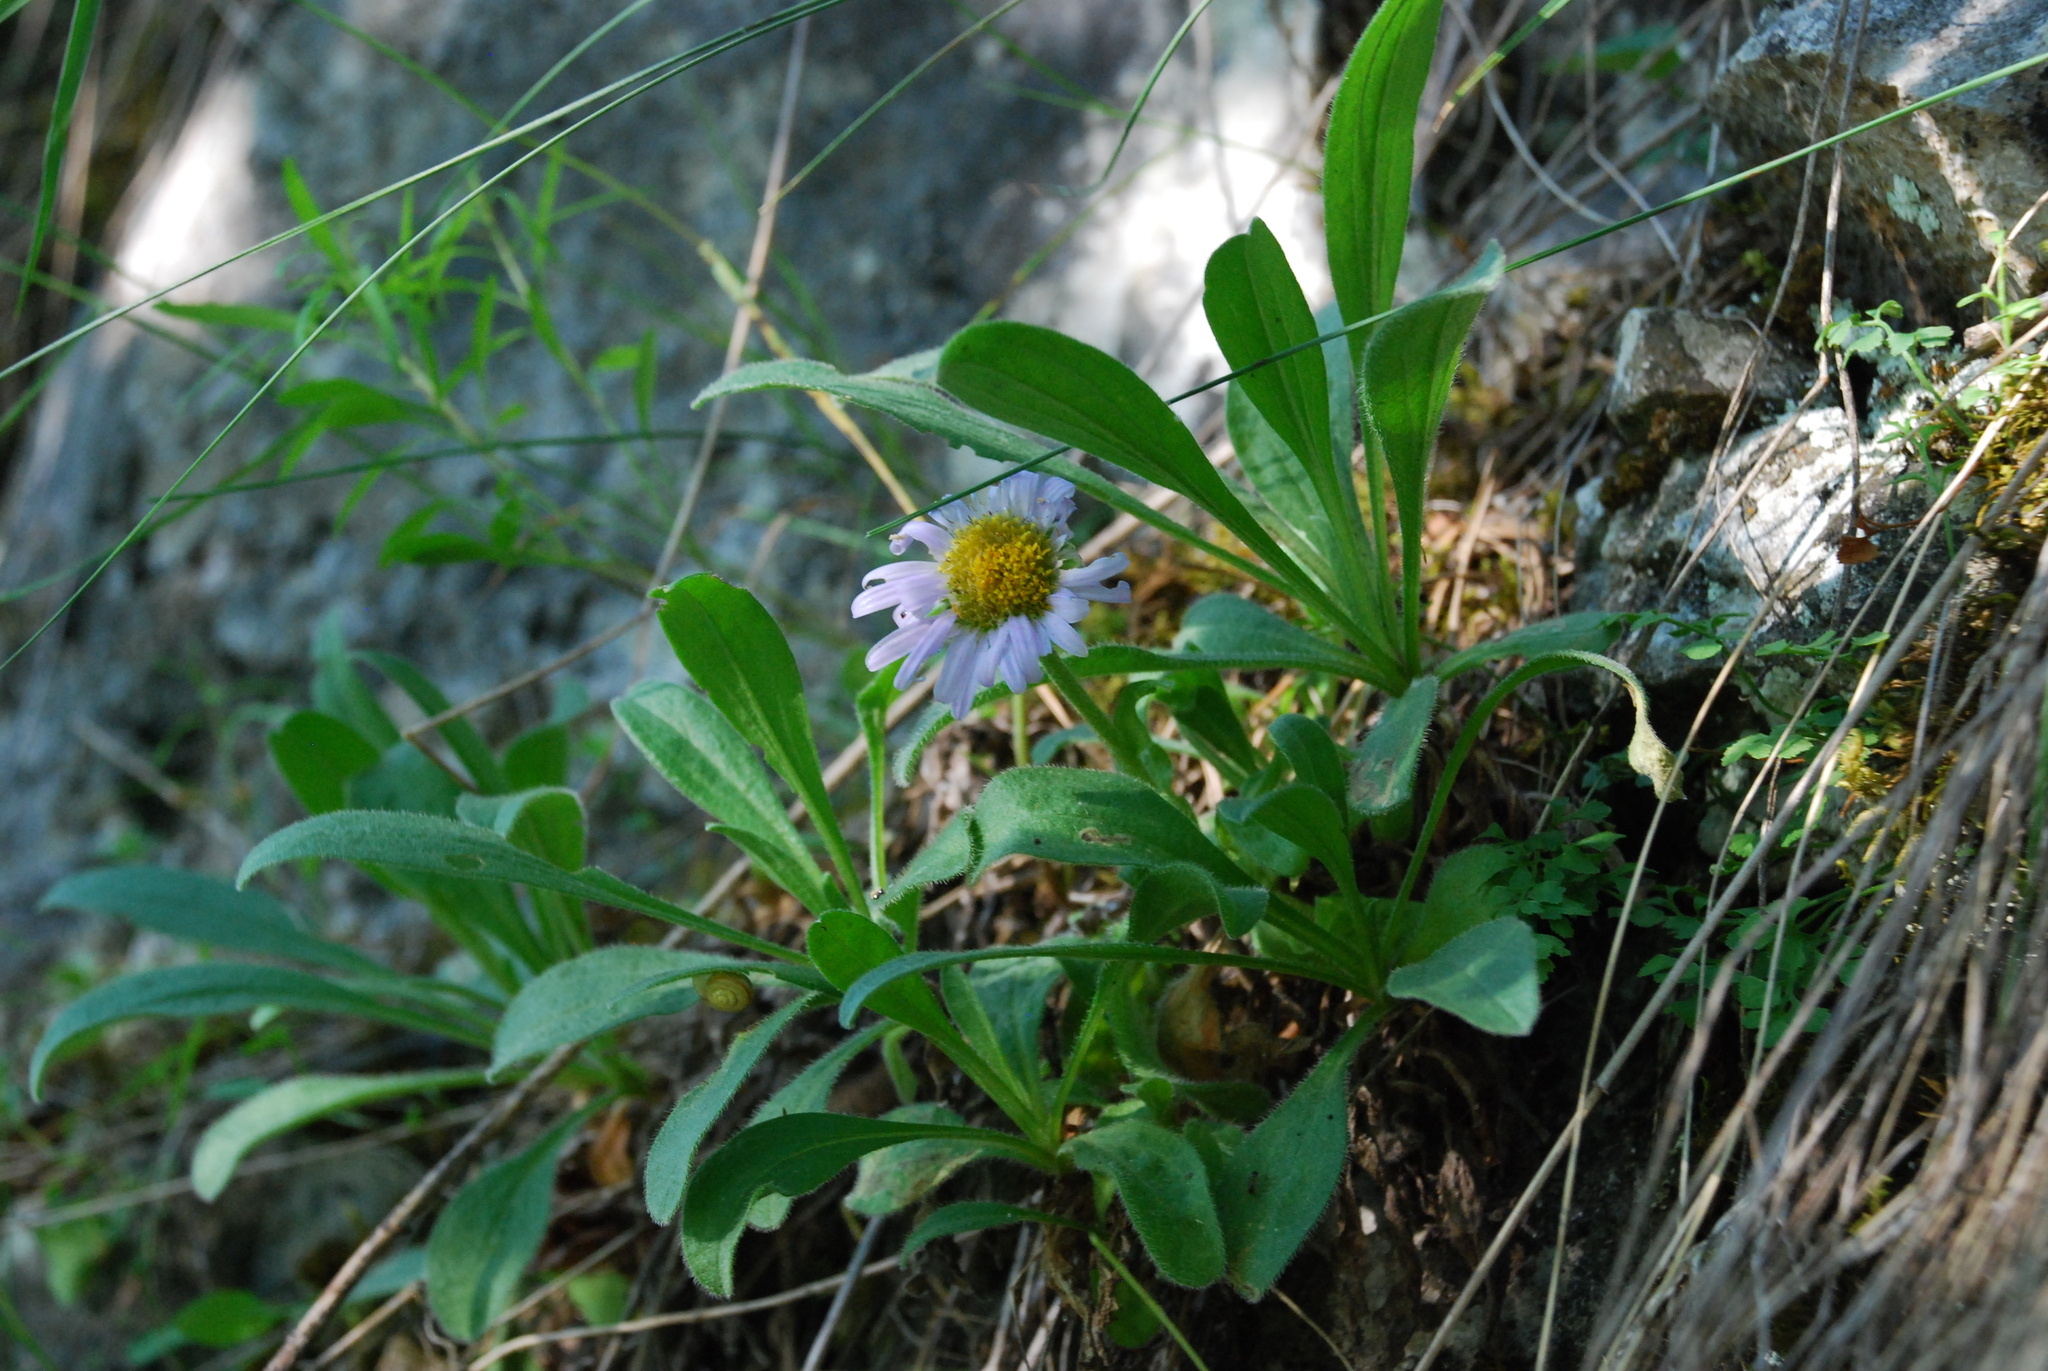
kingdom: Plantae
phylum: Tracheophyta
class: Magnoliopsida
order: Asterales
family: Asteraceae
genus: Aster
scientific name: Aster alpinus
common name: Alpine aster
